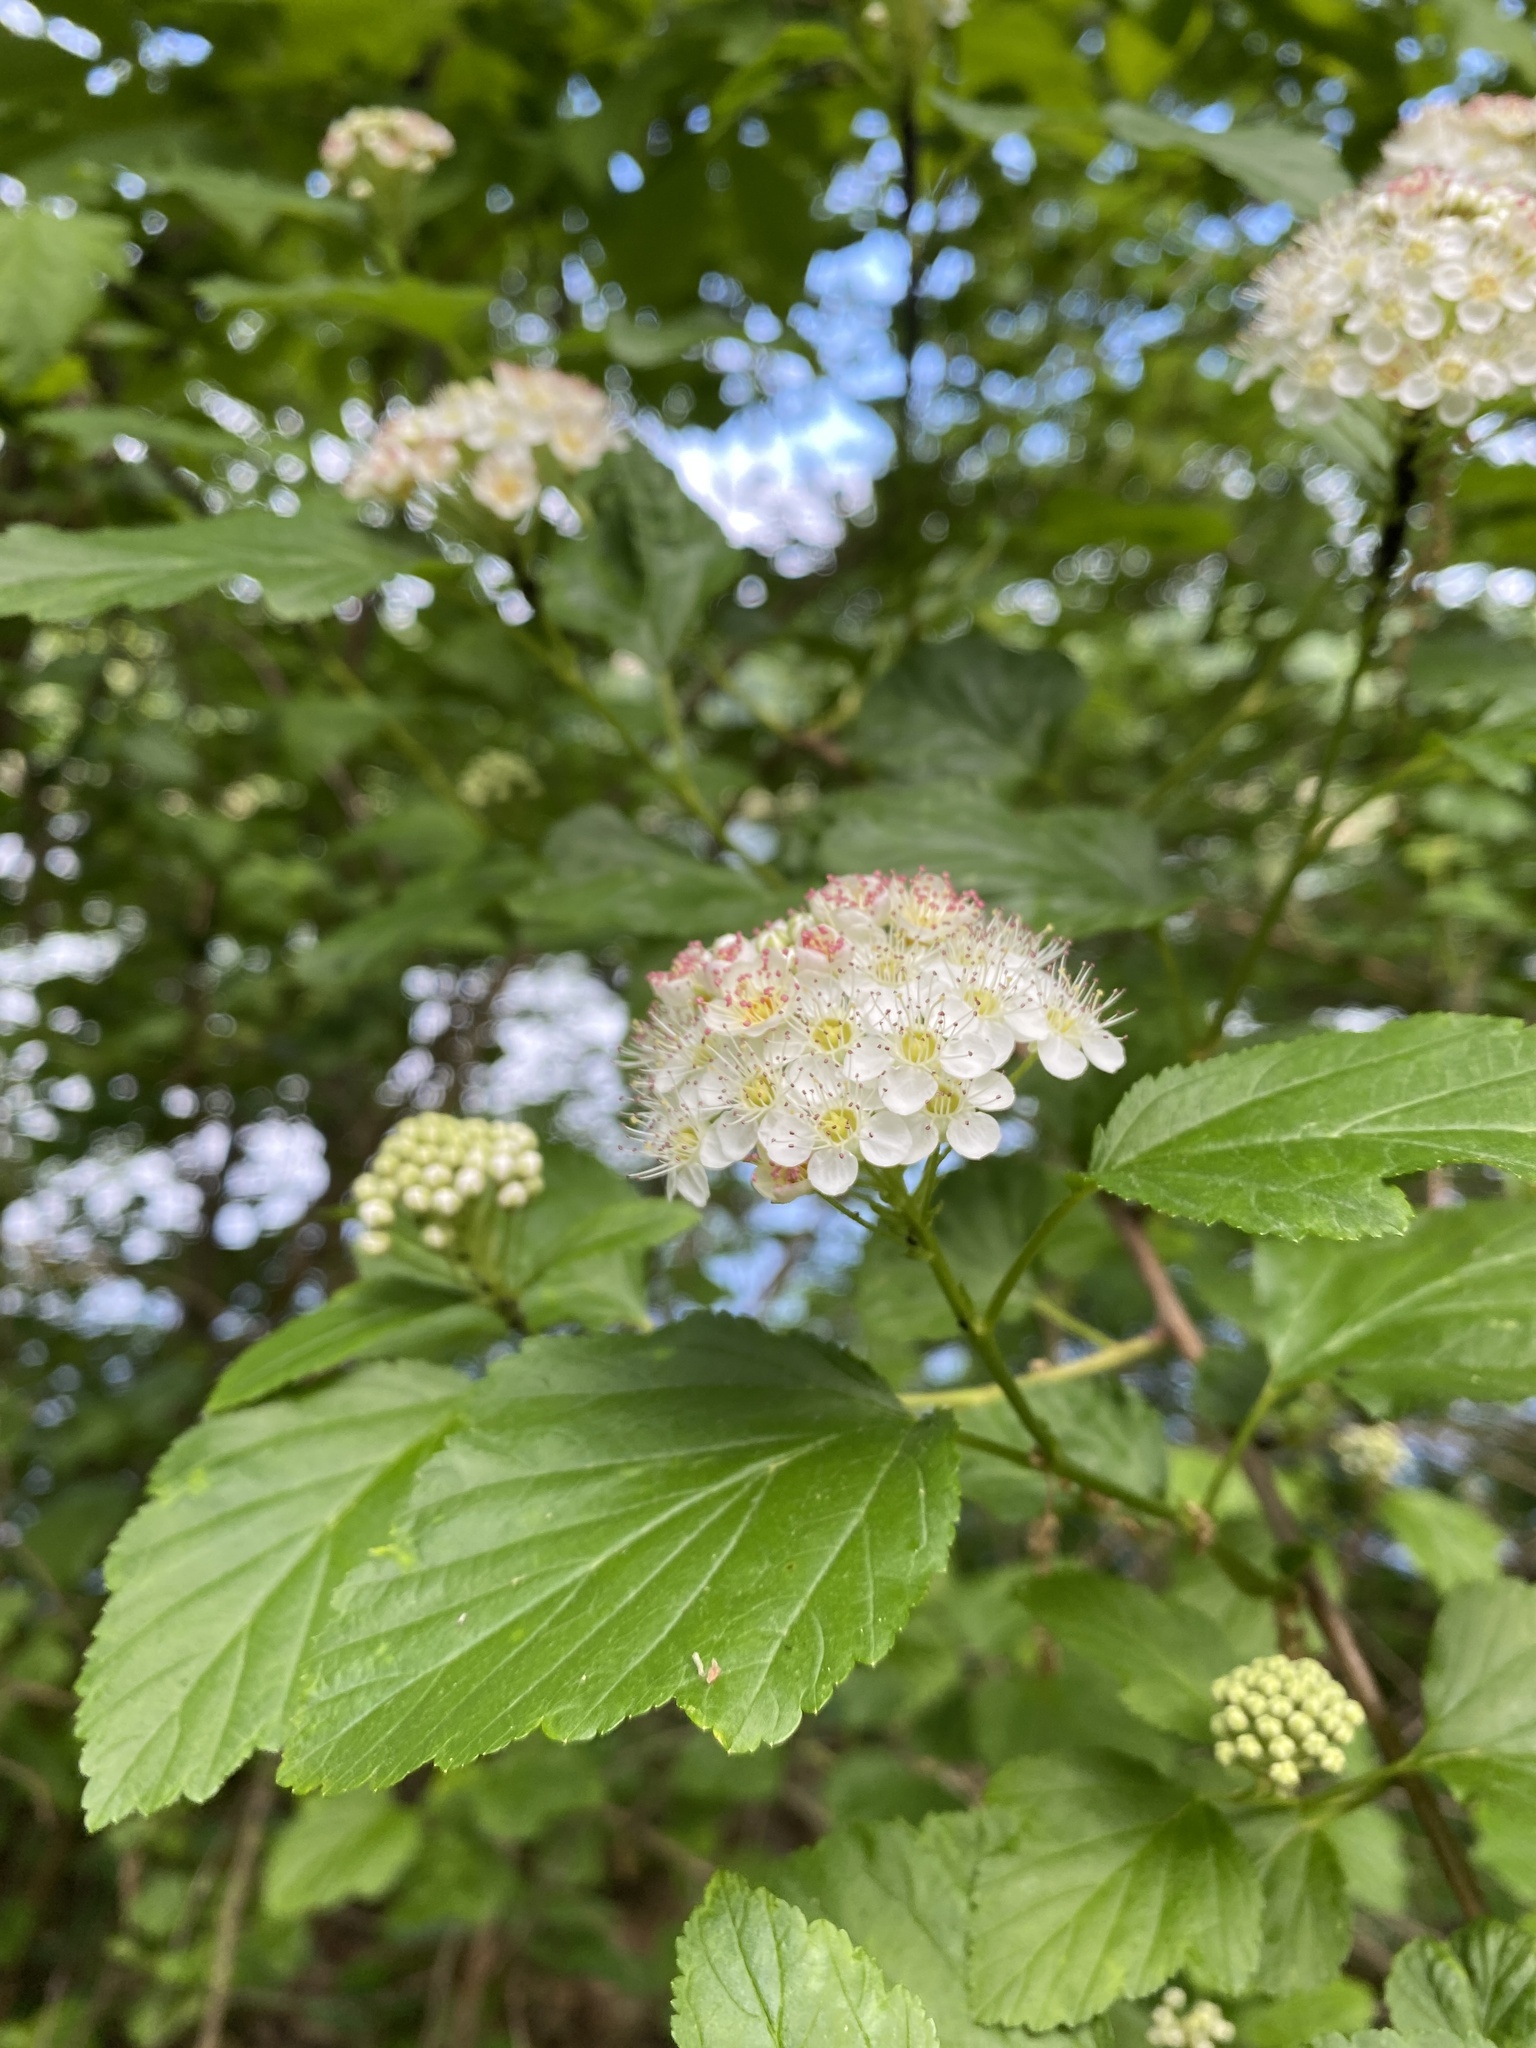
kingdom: Plantae
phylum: Tracheophyta
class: Magnoliopsida
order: Rosales
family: Rosaceae
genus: Physocarpus
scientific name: Physocarpus opulifolius
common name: Ninebark
